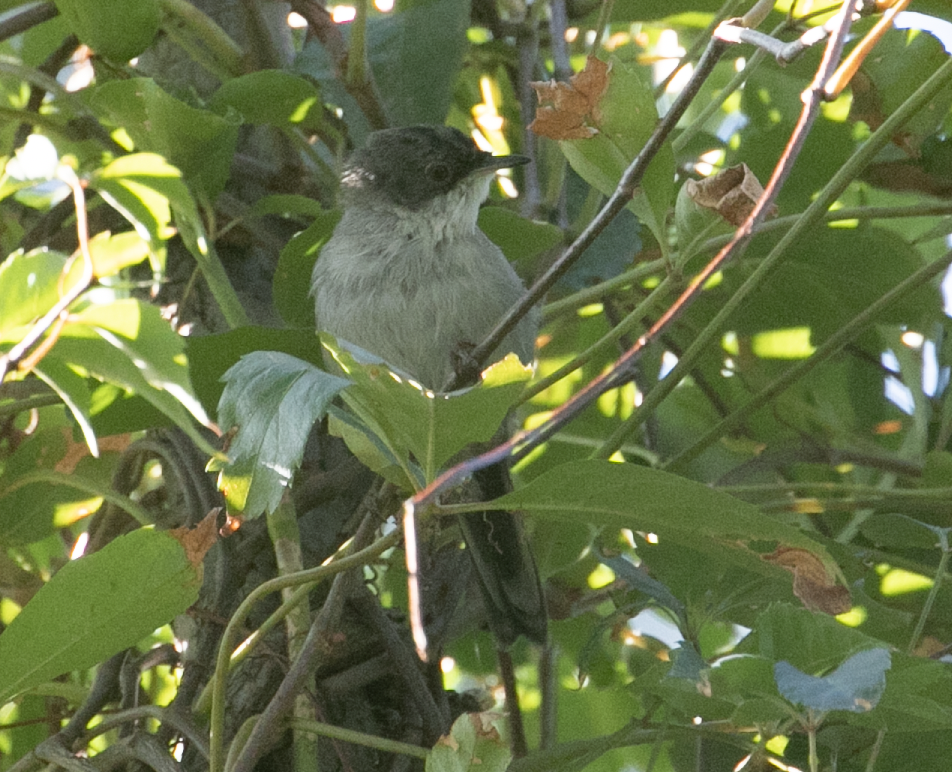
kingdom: Animalia
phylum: Chordata
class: Aves
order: Passeriformes
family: Sylviidae
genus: Curruca
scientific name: Curruca melanocephala
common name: Sardinian warbler
